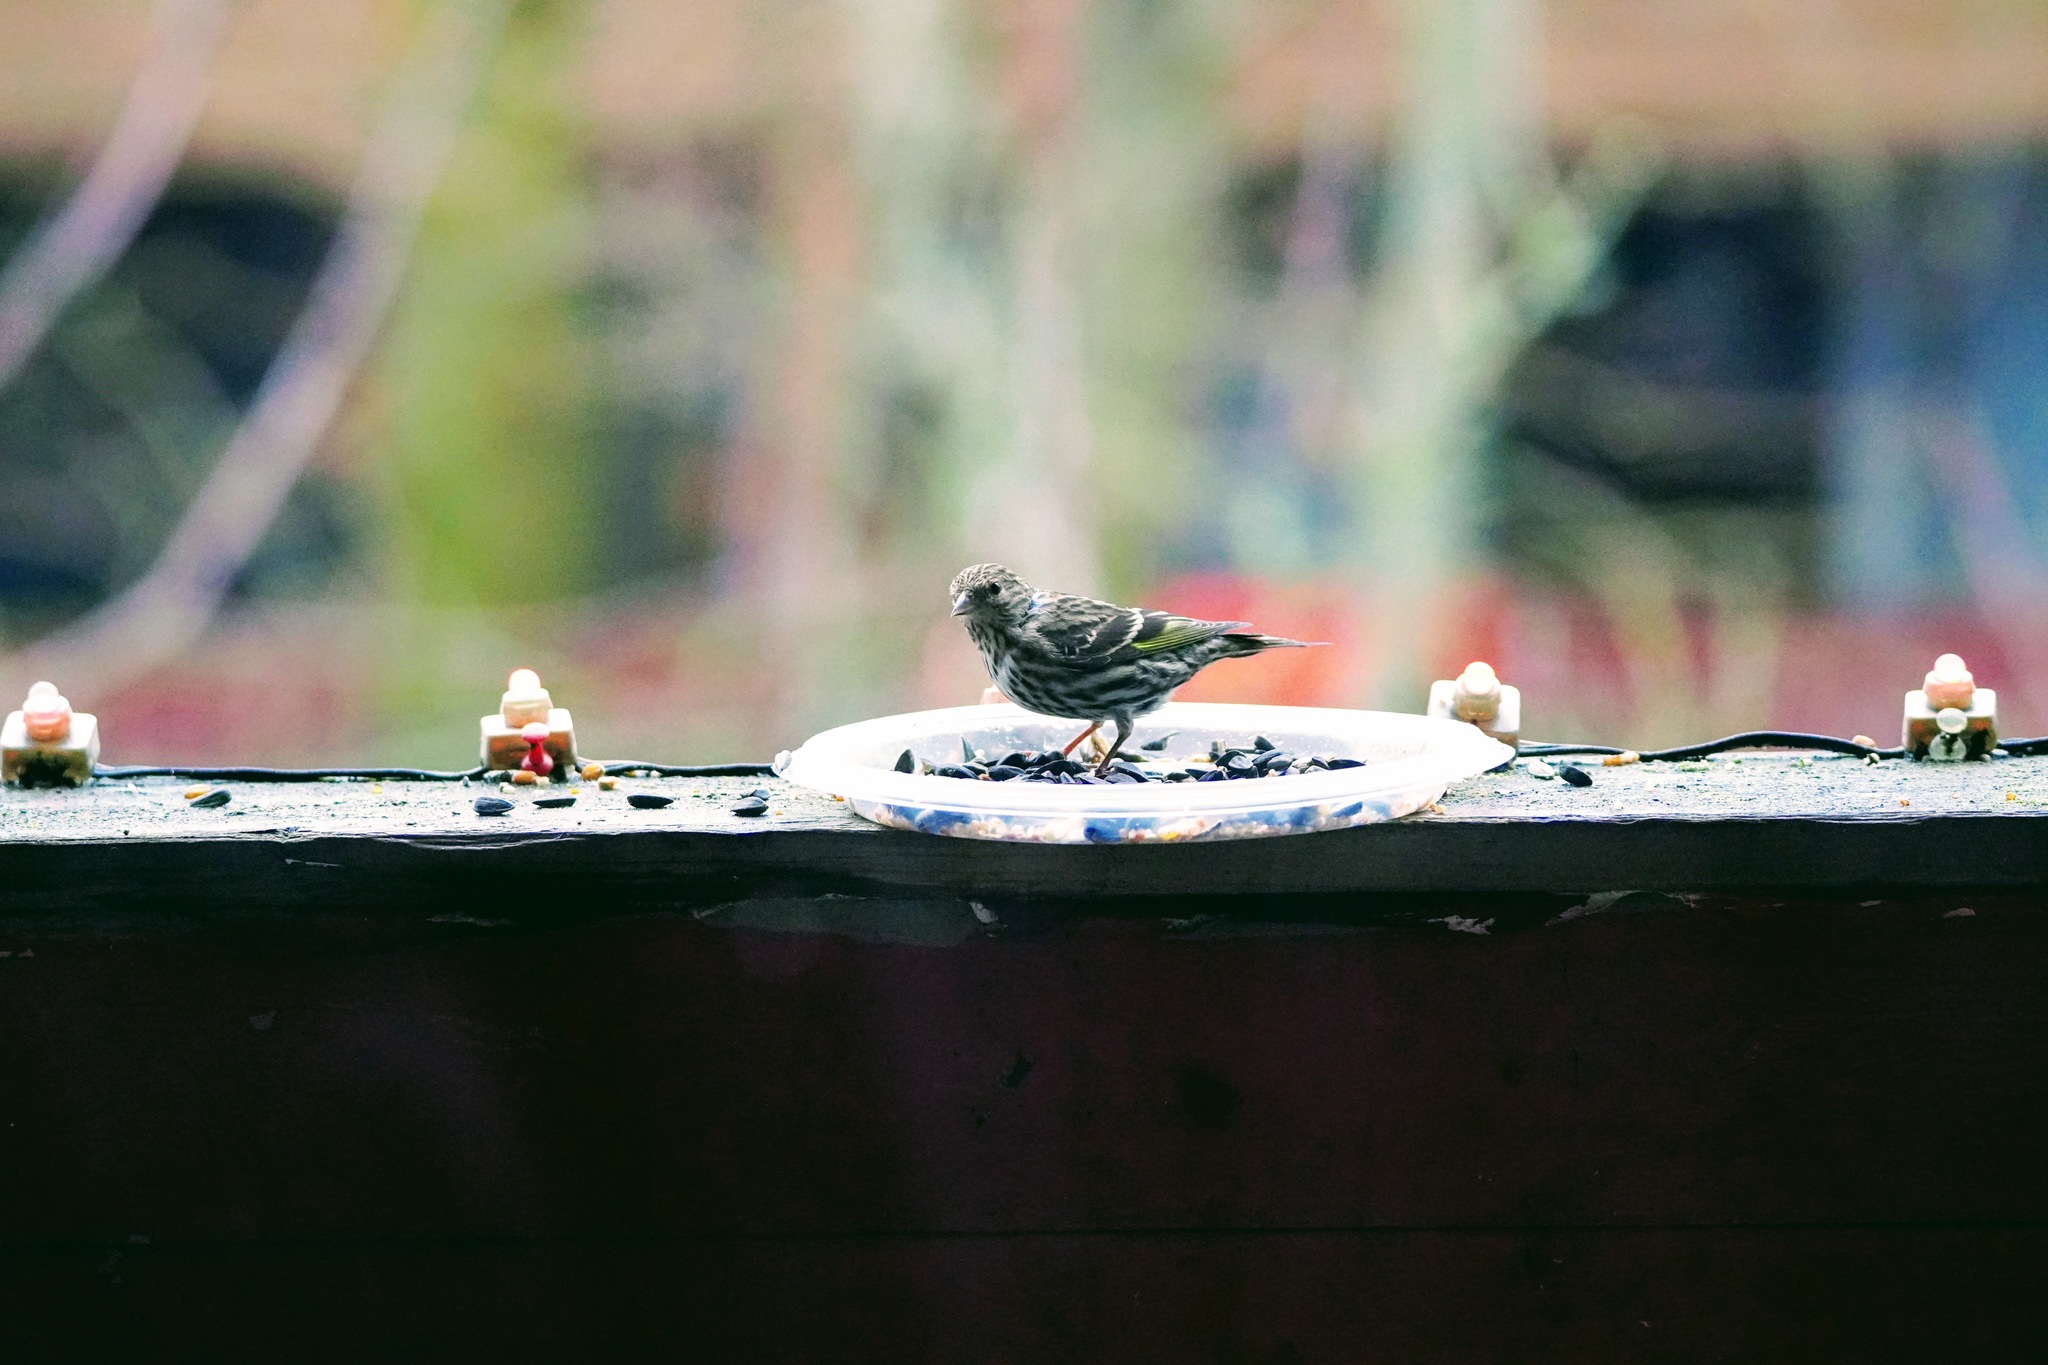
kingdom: Animalia
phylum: Chordata
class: Aves
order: Passeriformes
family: Fringillidae
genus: Spinus
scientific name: Spinus pinus
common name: Pine siskin
